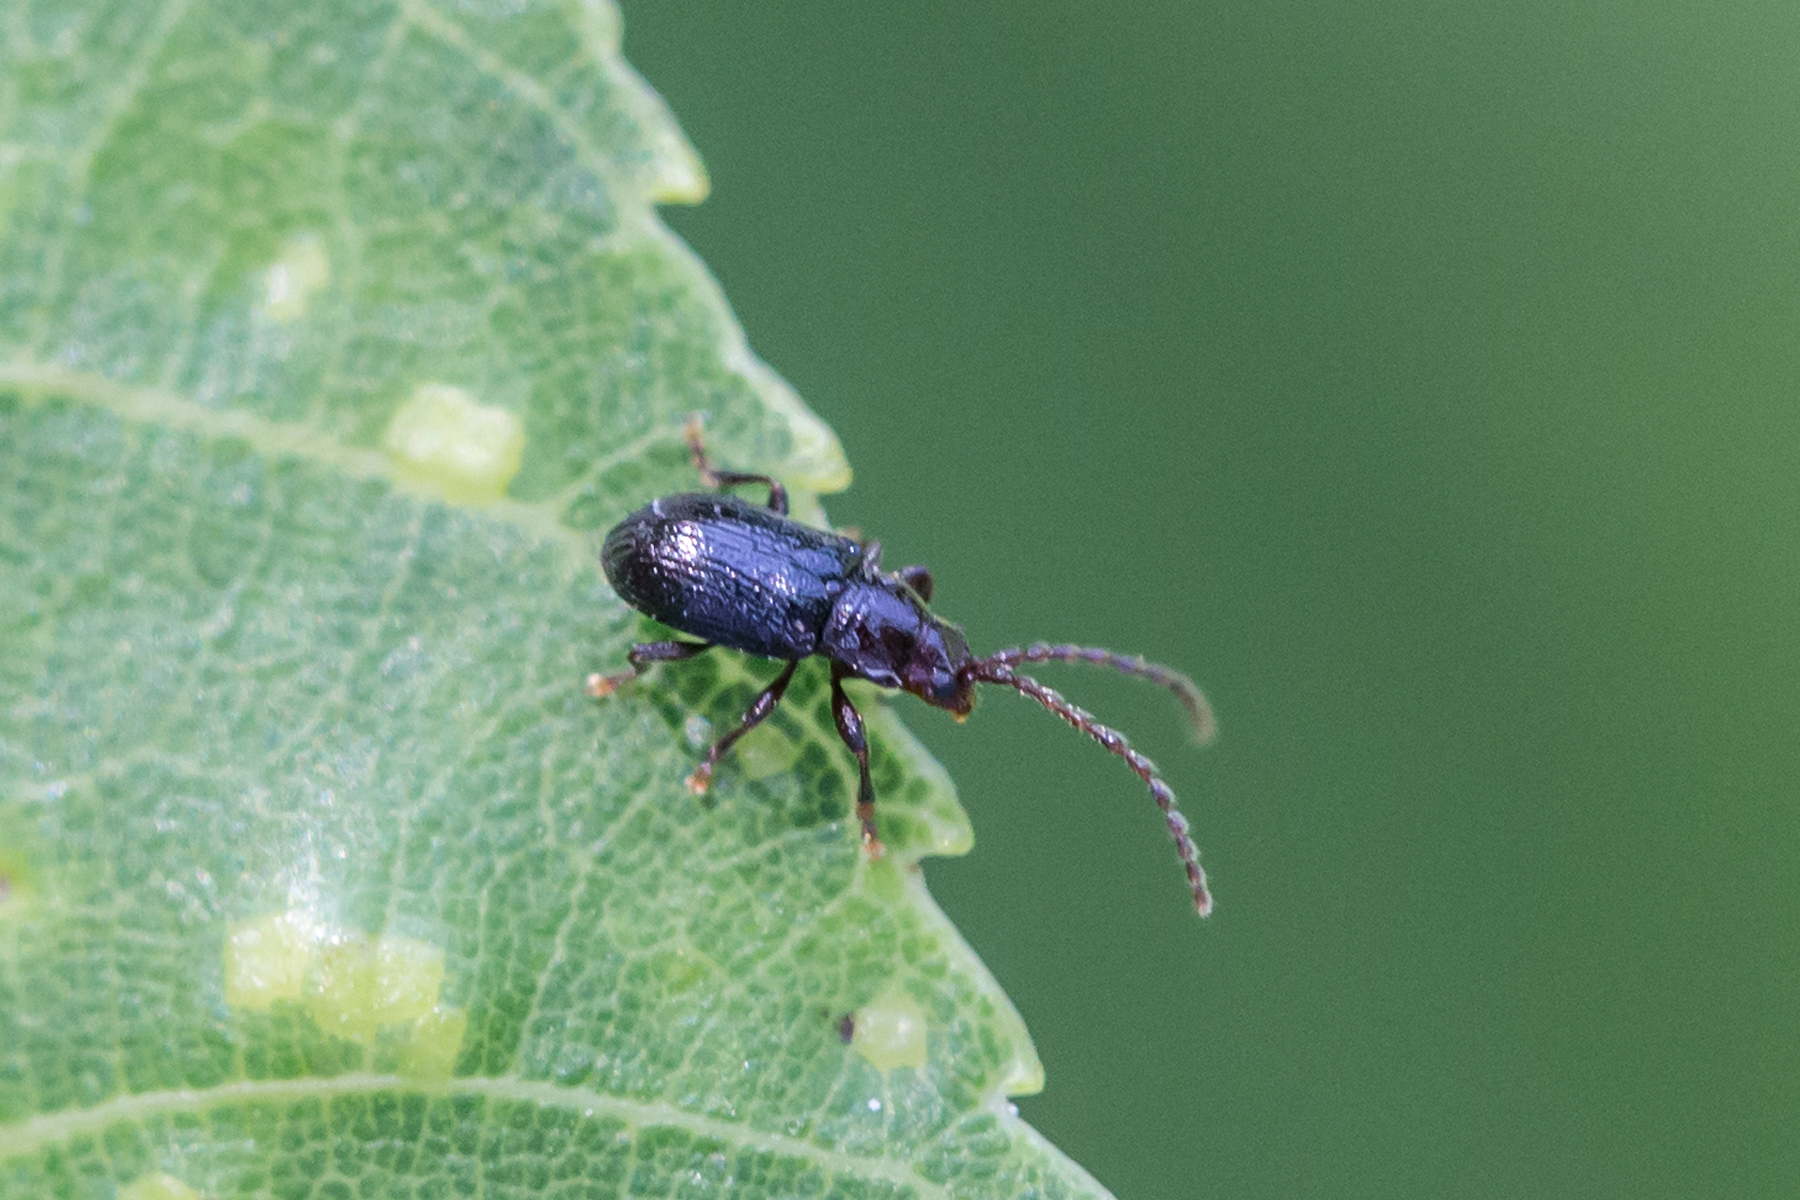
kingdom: Animalia
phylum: Arthropoda
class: Insecta
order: Coleoptera
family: Chrysomelidae
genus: Aulacothorax
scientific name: Aulacothorax
